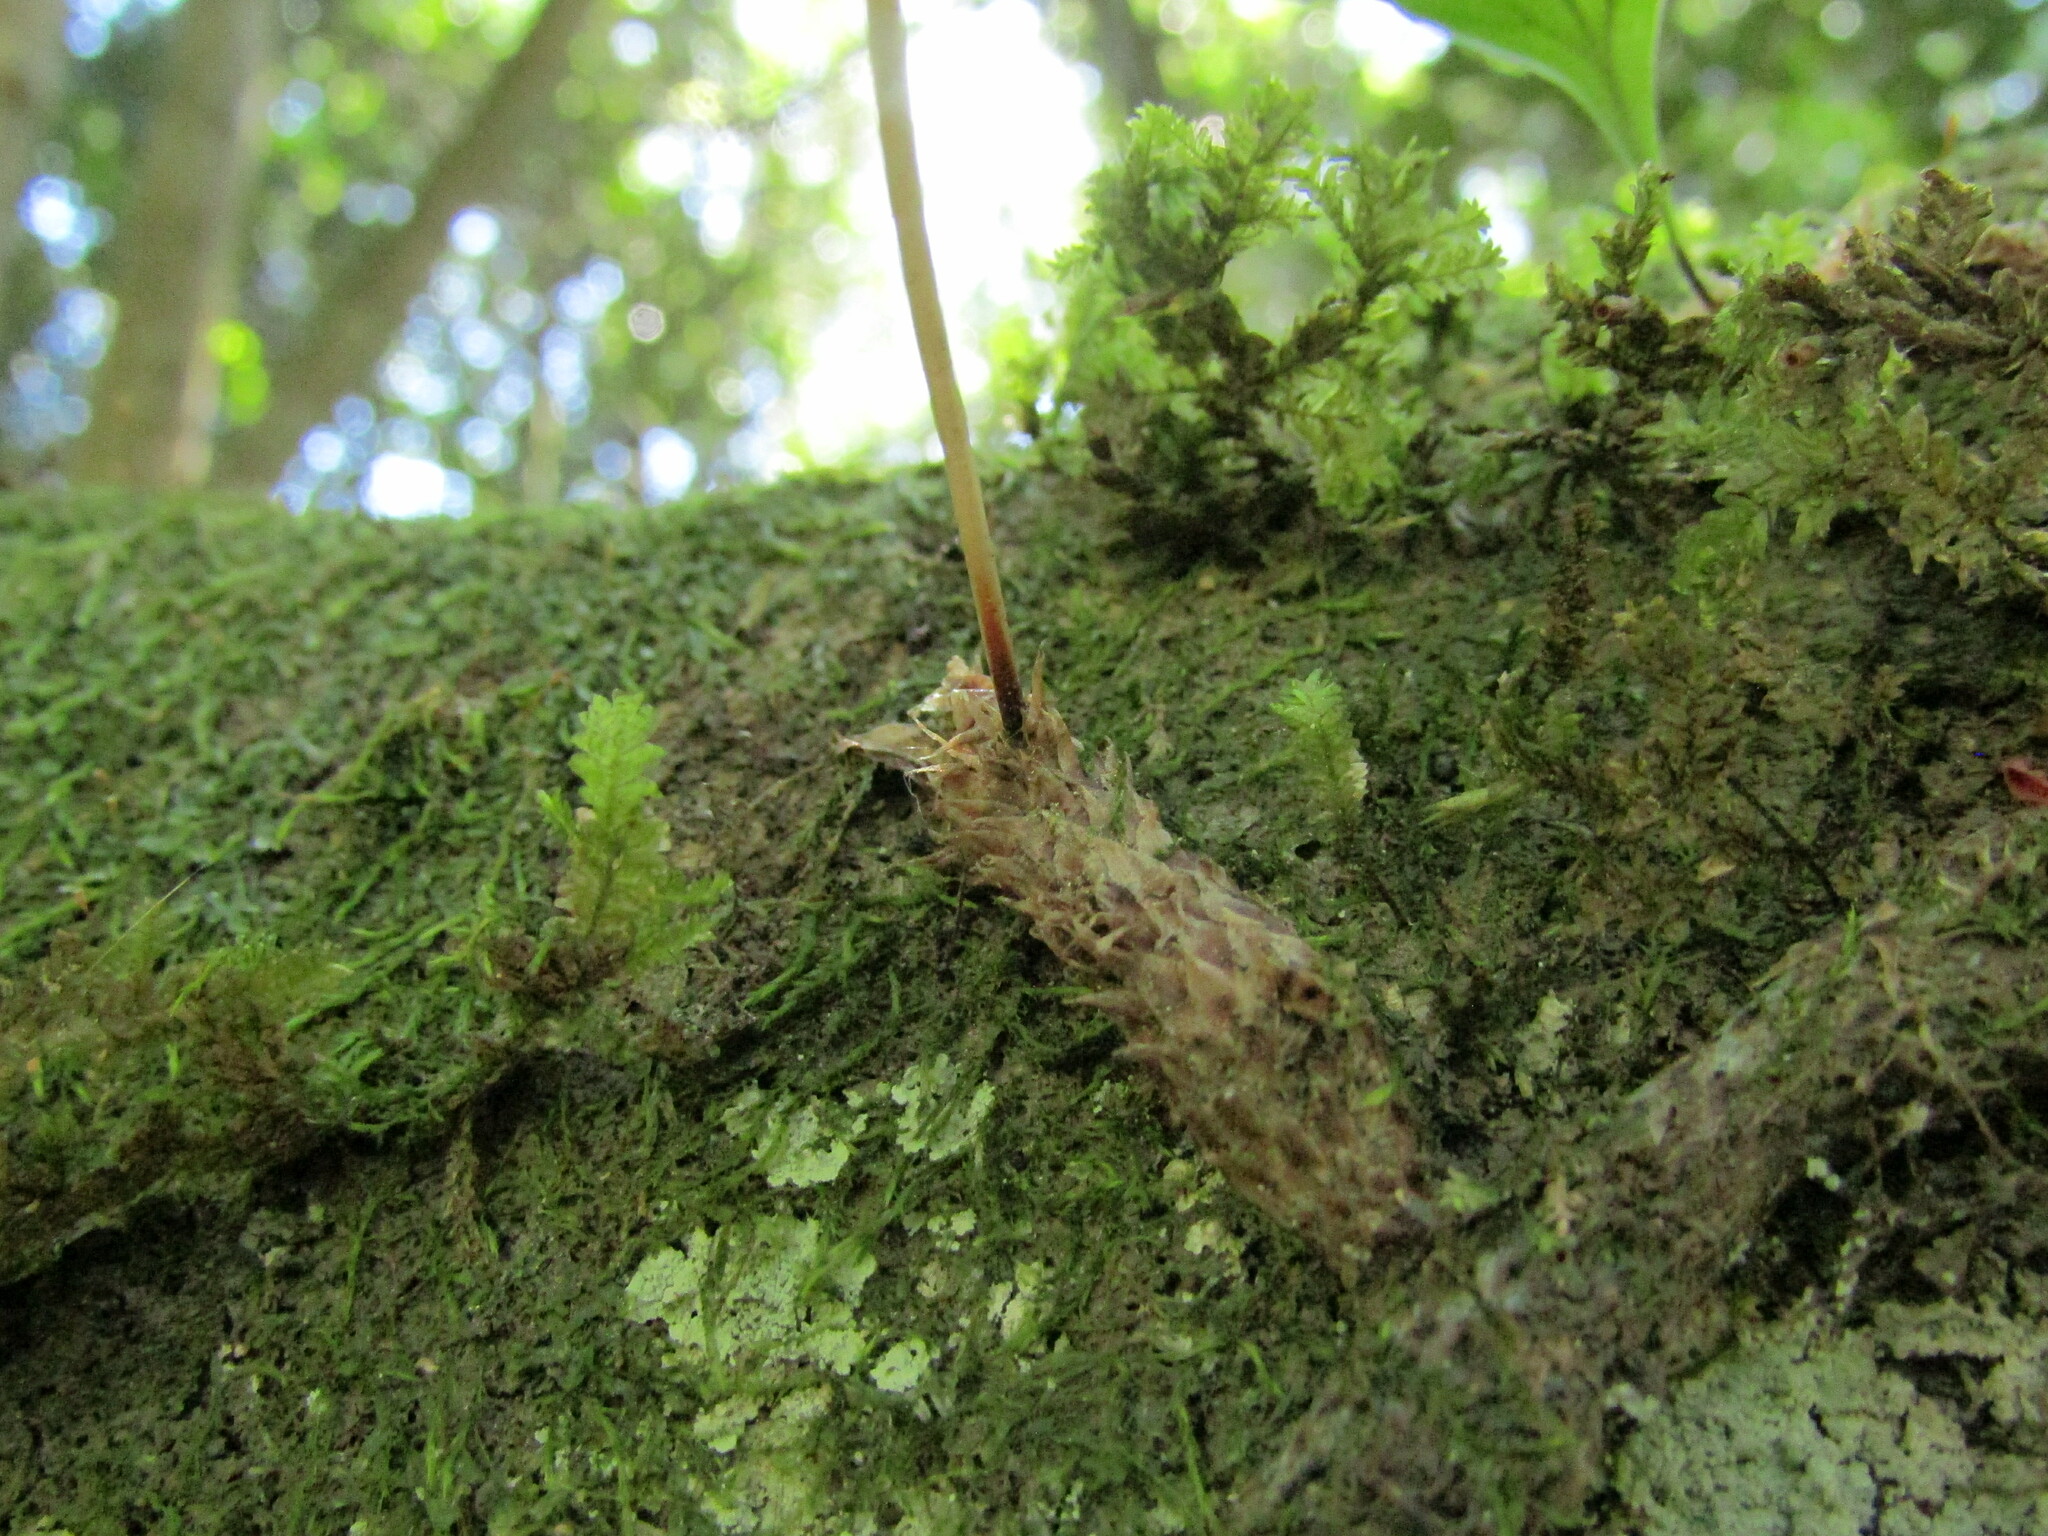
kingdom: Plantae
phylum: Tracheophyta
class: Polypodiopsida
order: Polypodiales
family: Polypodiaceae
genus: Synammia
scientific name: Synammia feuillei
